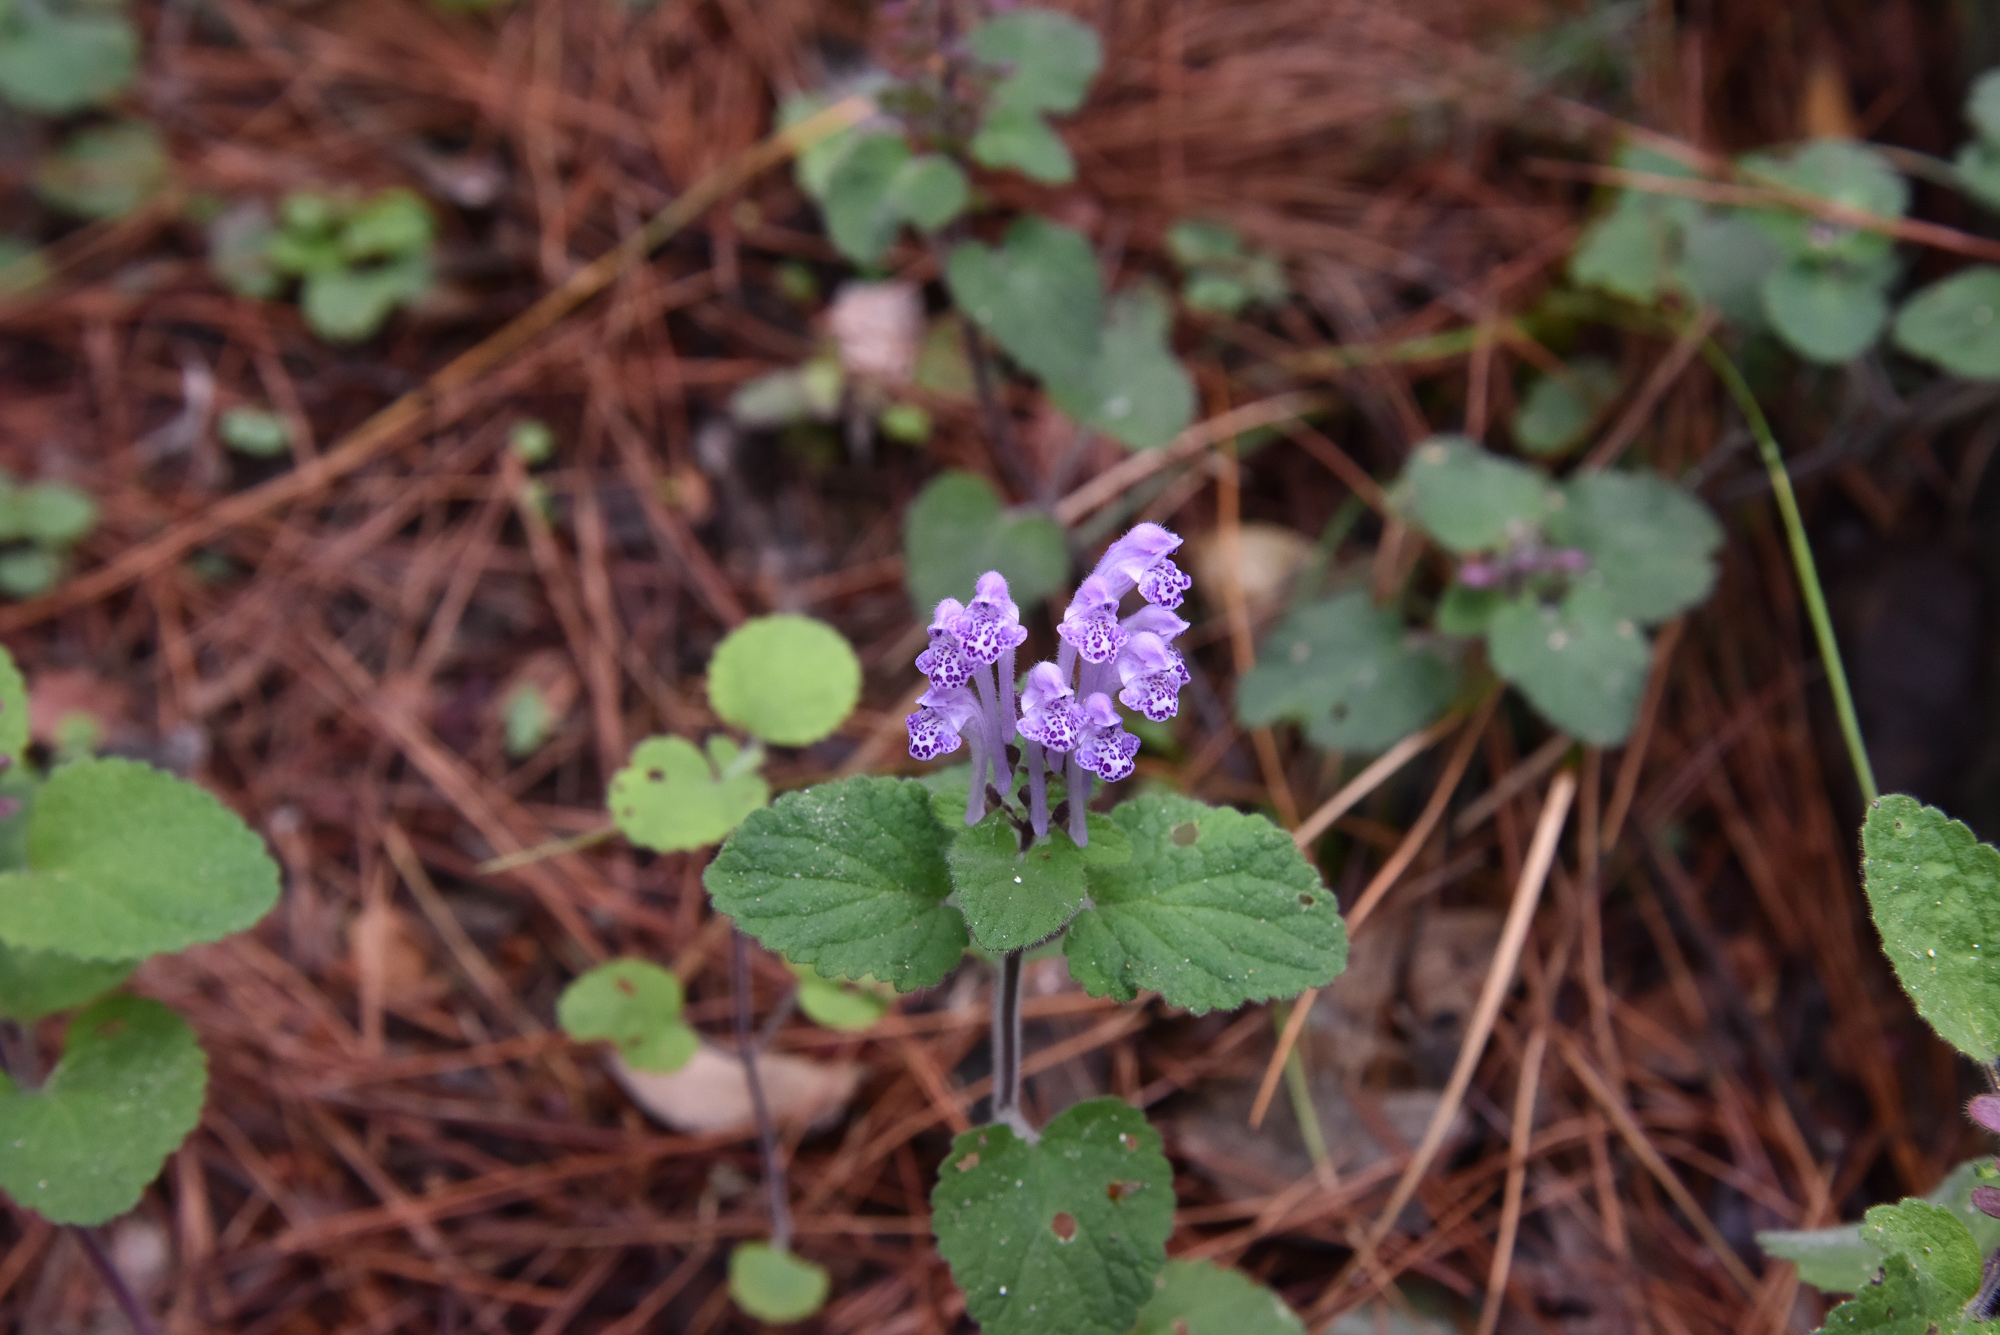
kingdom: Plantae
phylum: Tracheophyta
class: Magnoliopsida
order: Lamiales
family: Lamiaceae
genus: Scutellaria
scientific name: Scutellaria indica
